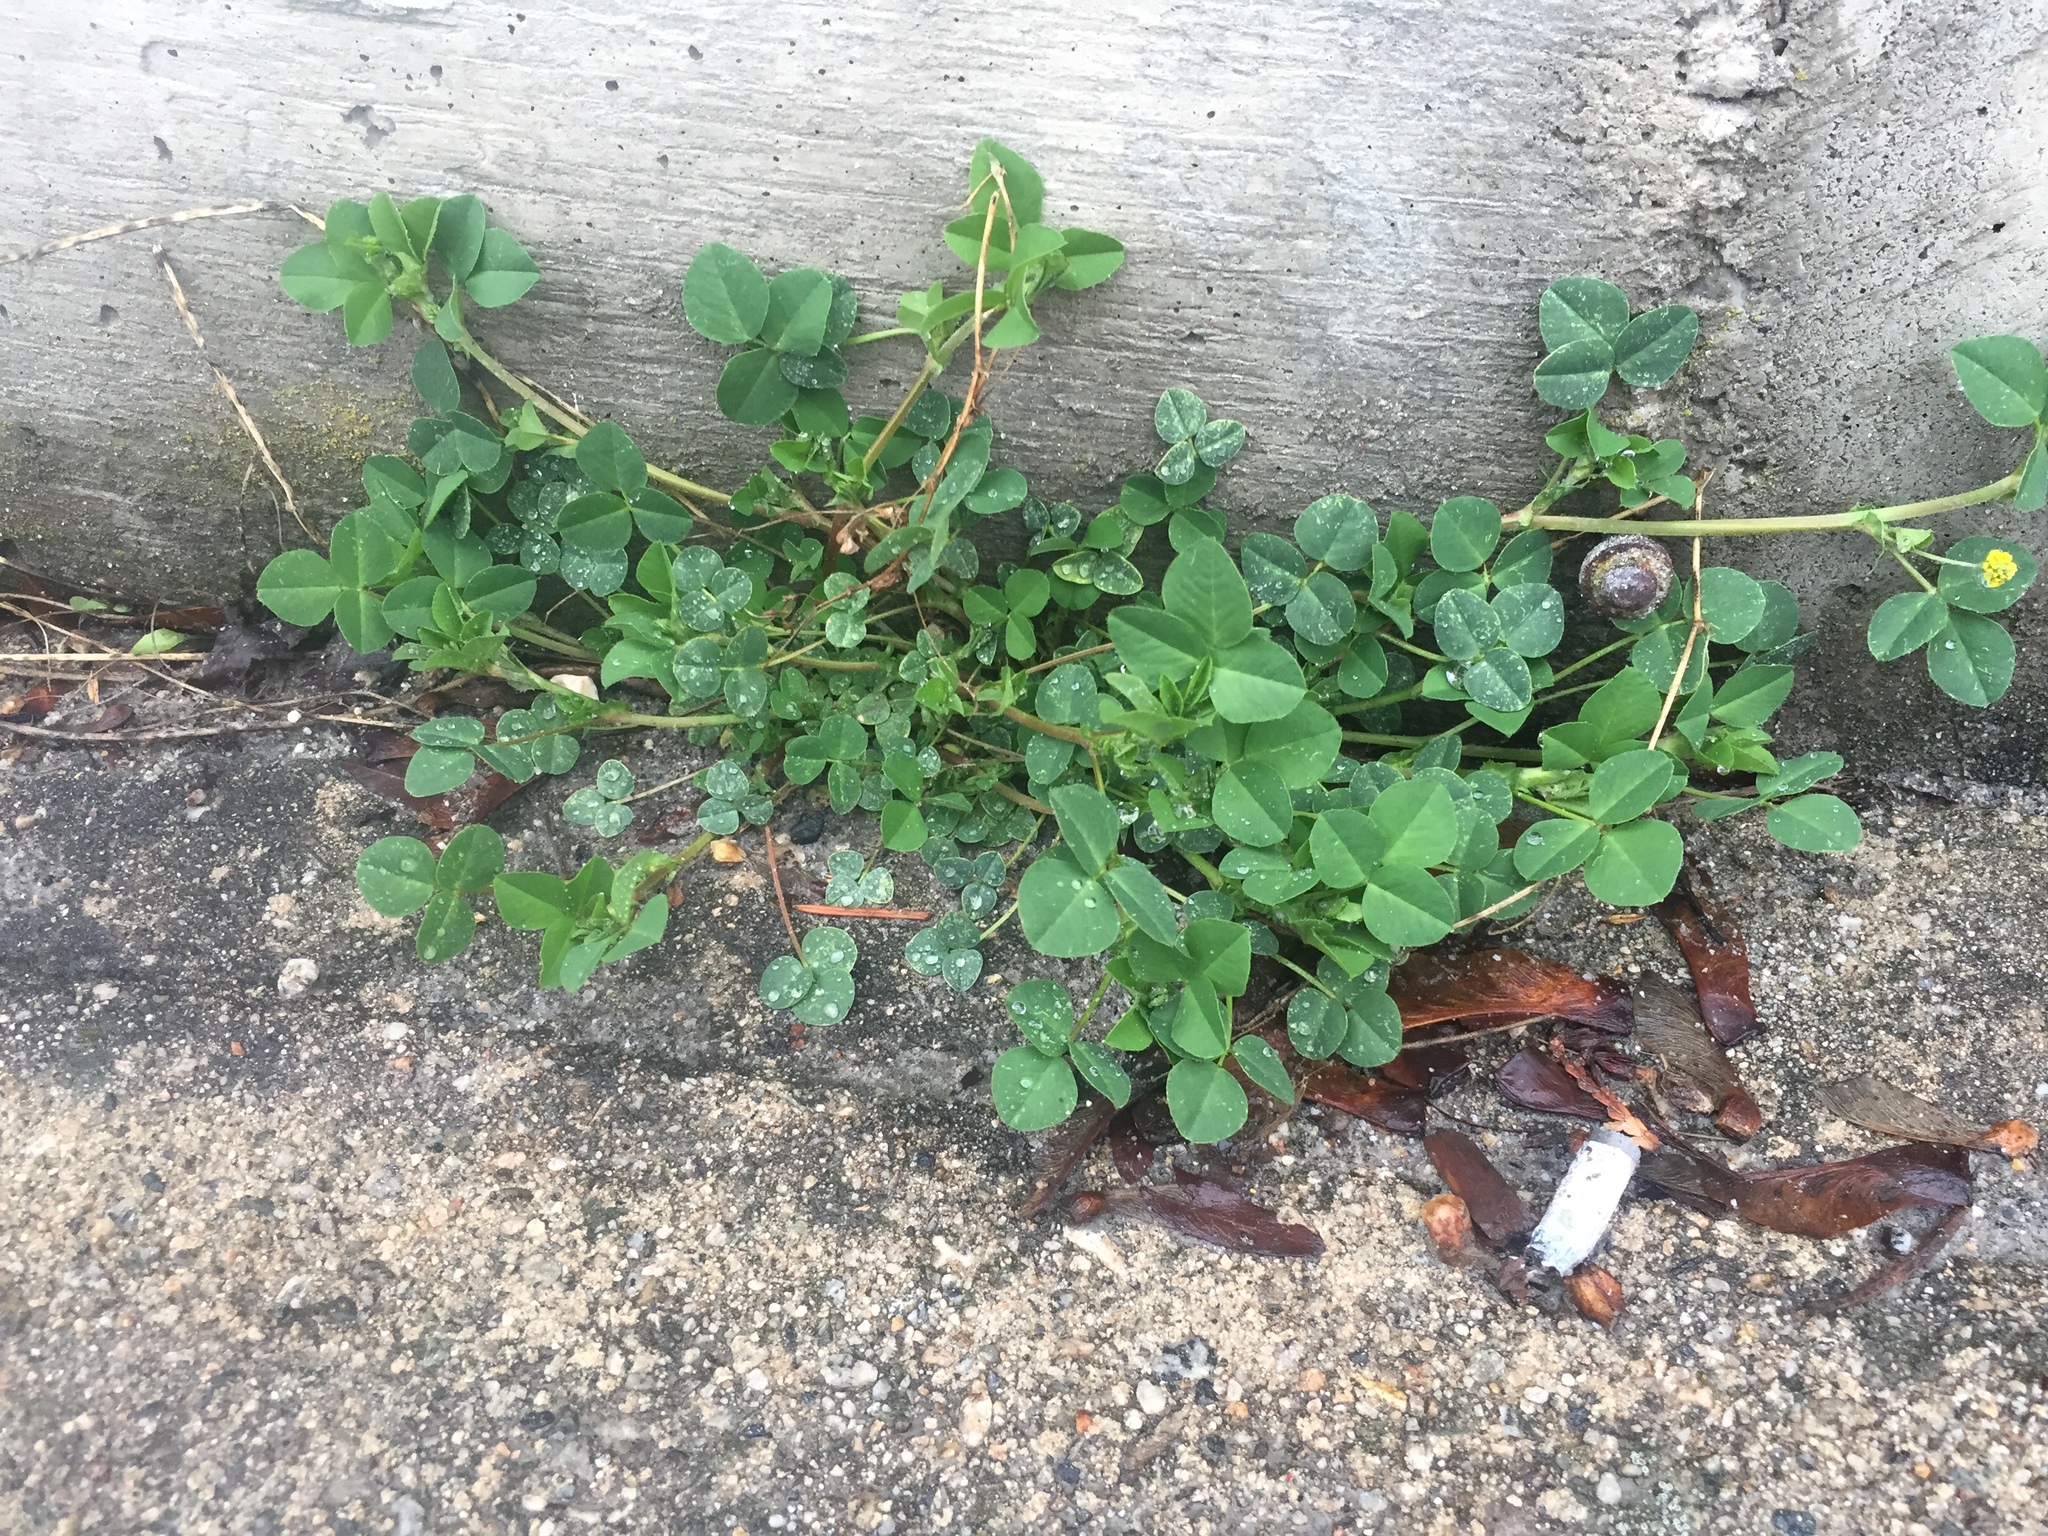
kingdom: Plantae
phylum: Tracheophyta
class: Magnoliopsida
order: Fabales
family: Fabaceae
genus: Medicago
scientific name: Medicago lupulina
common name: Black medick
